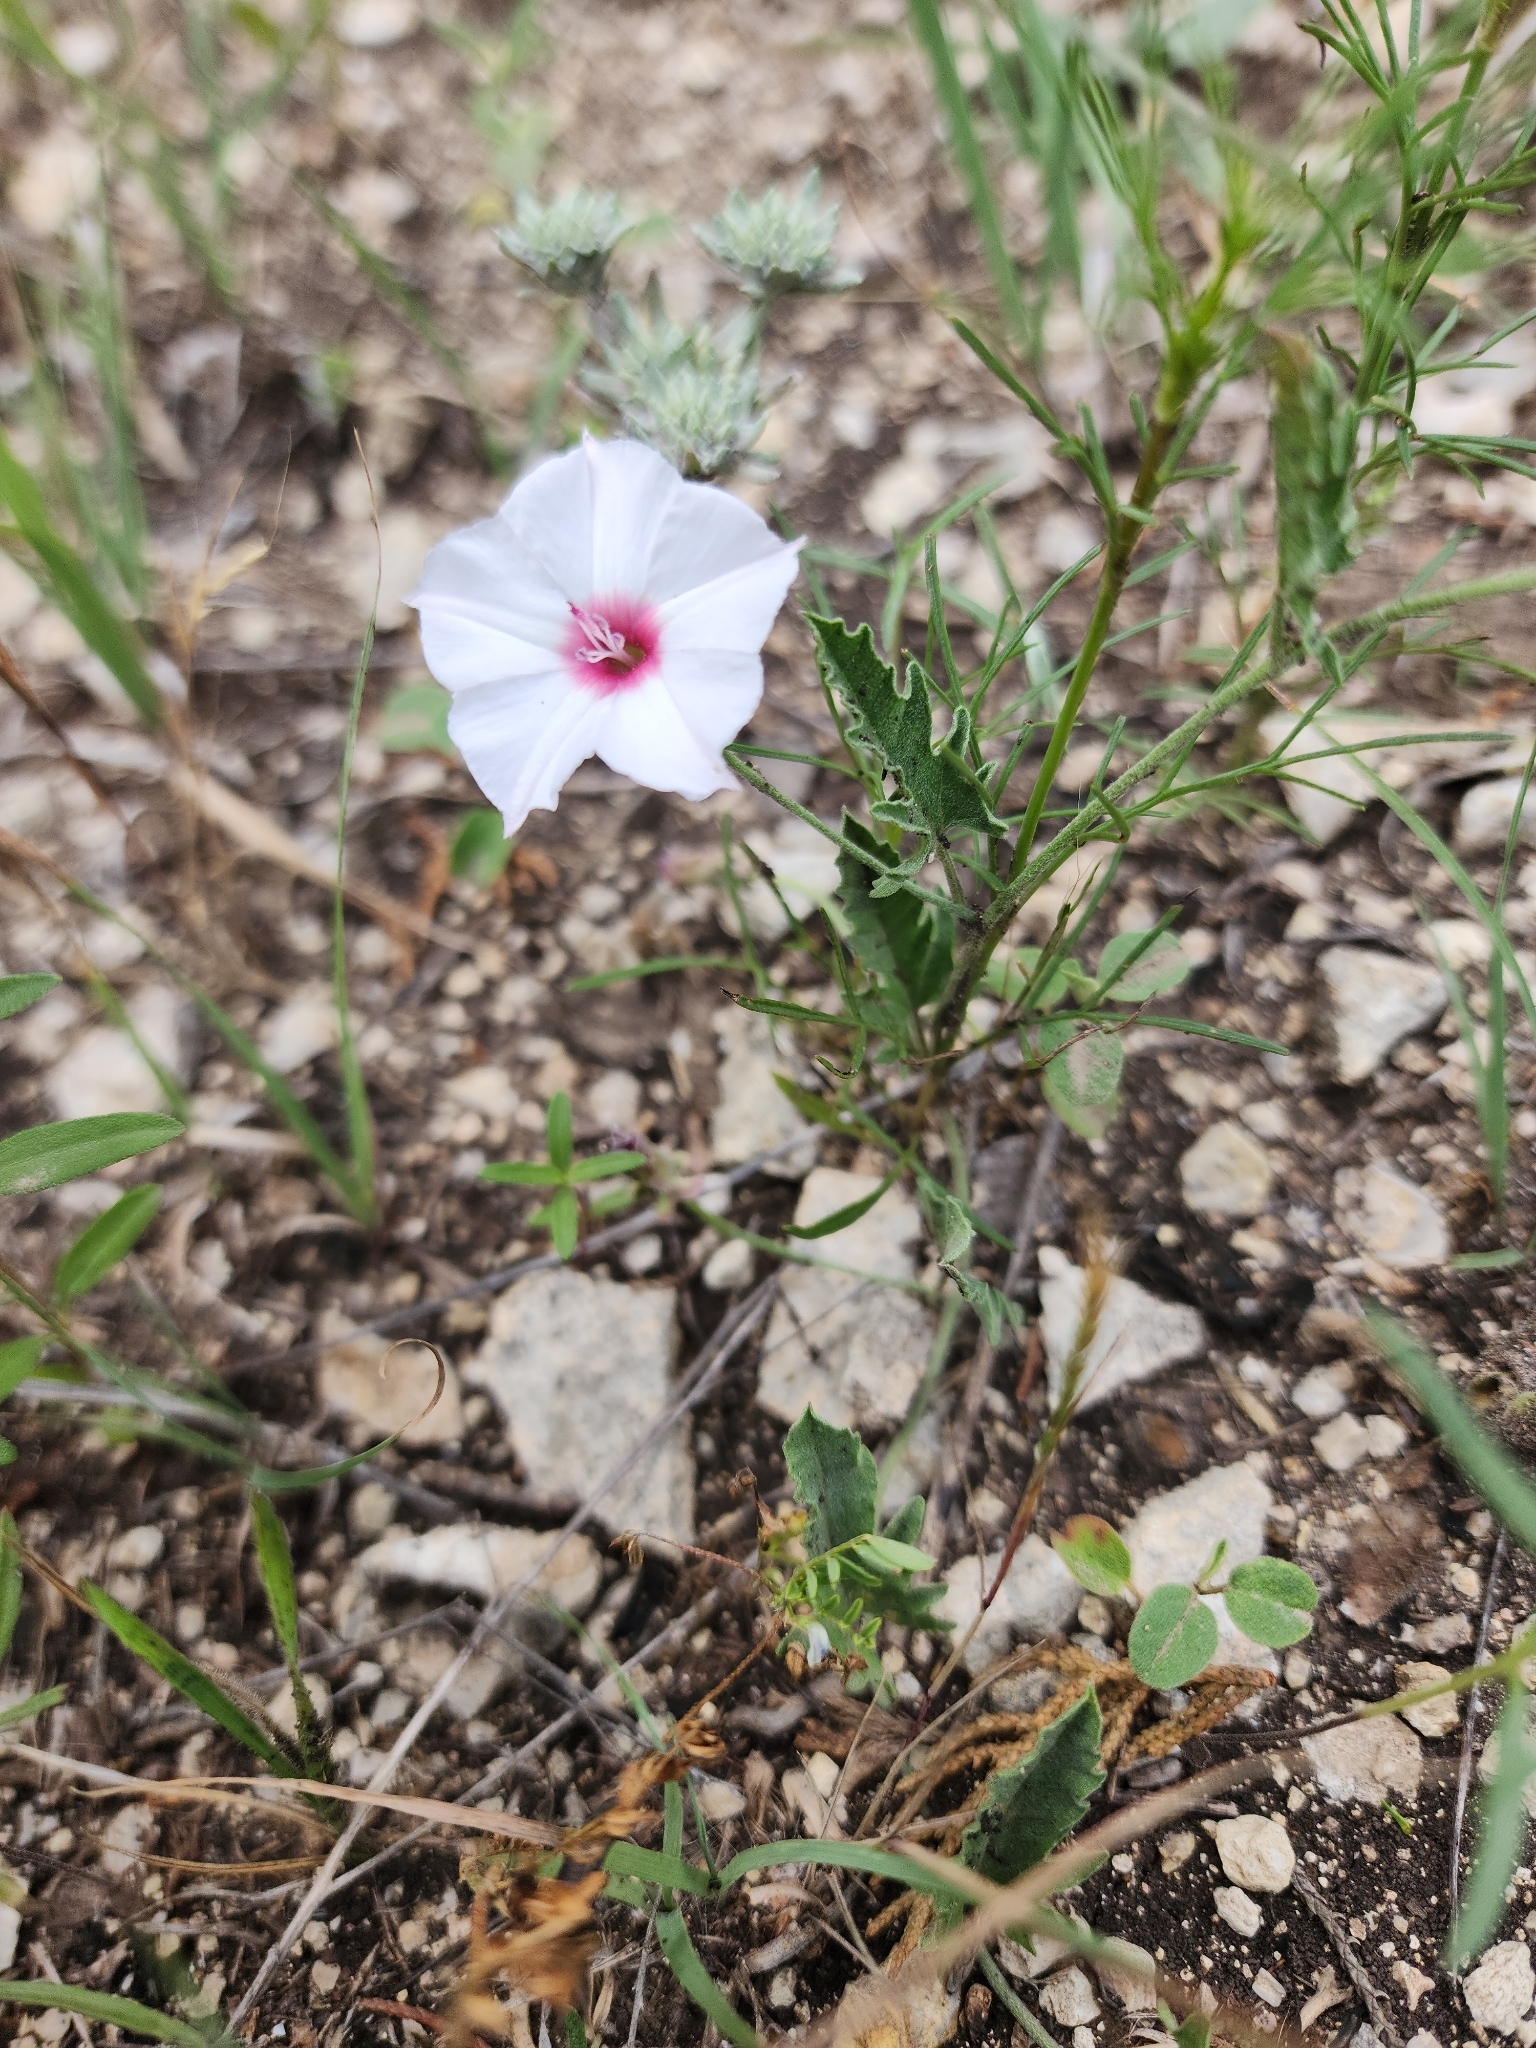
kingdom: Plantae
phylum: Tracheophyta
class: Magnoliopsida
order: Solanales
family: Convolvulaceae
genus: Convolvulus
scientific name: Convolvulus equitans
